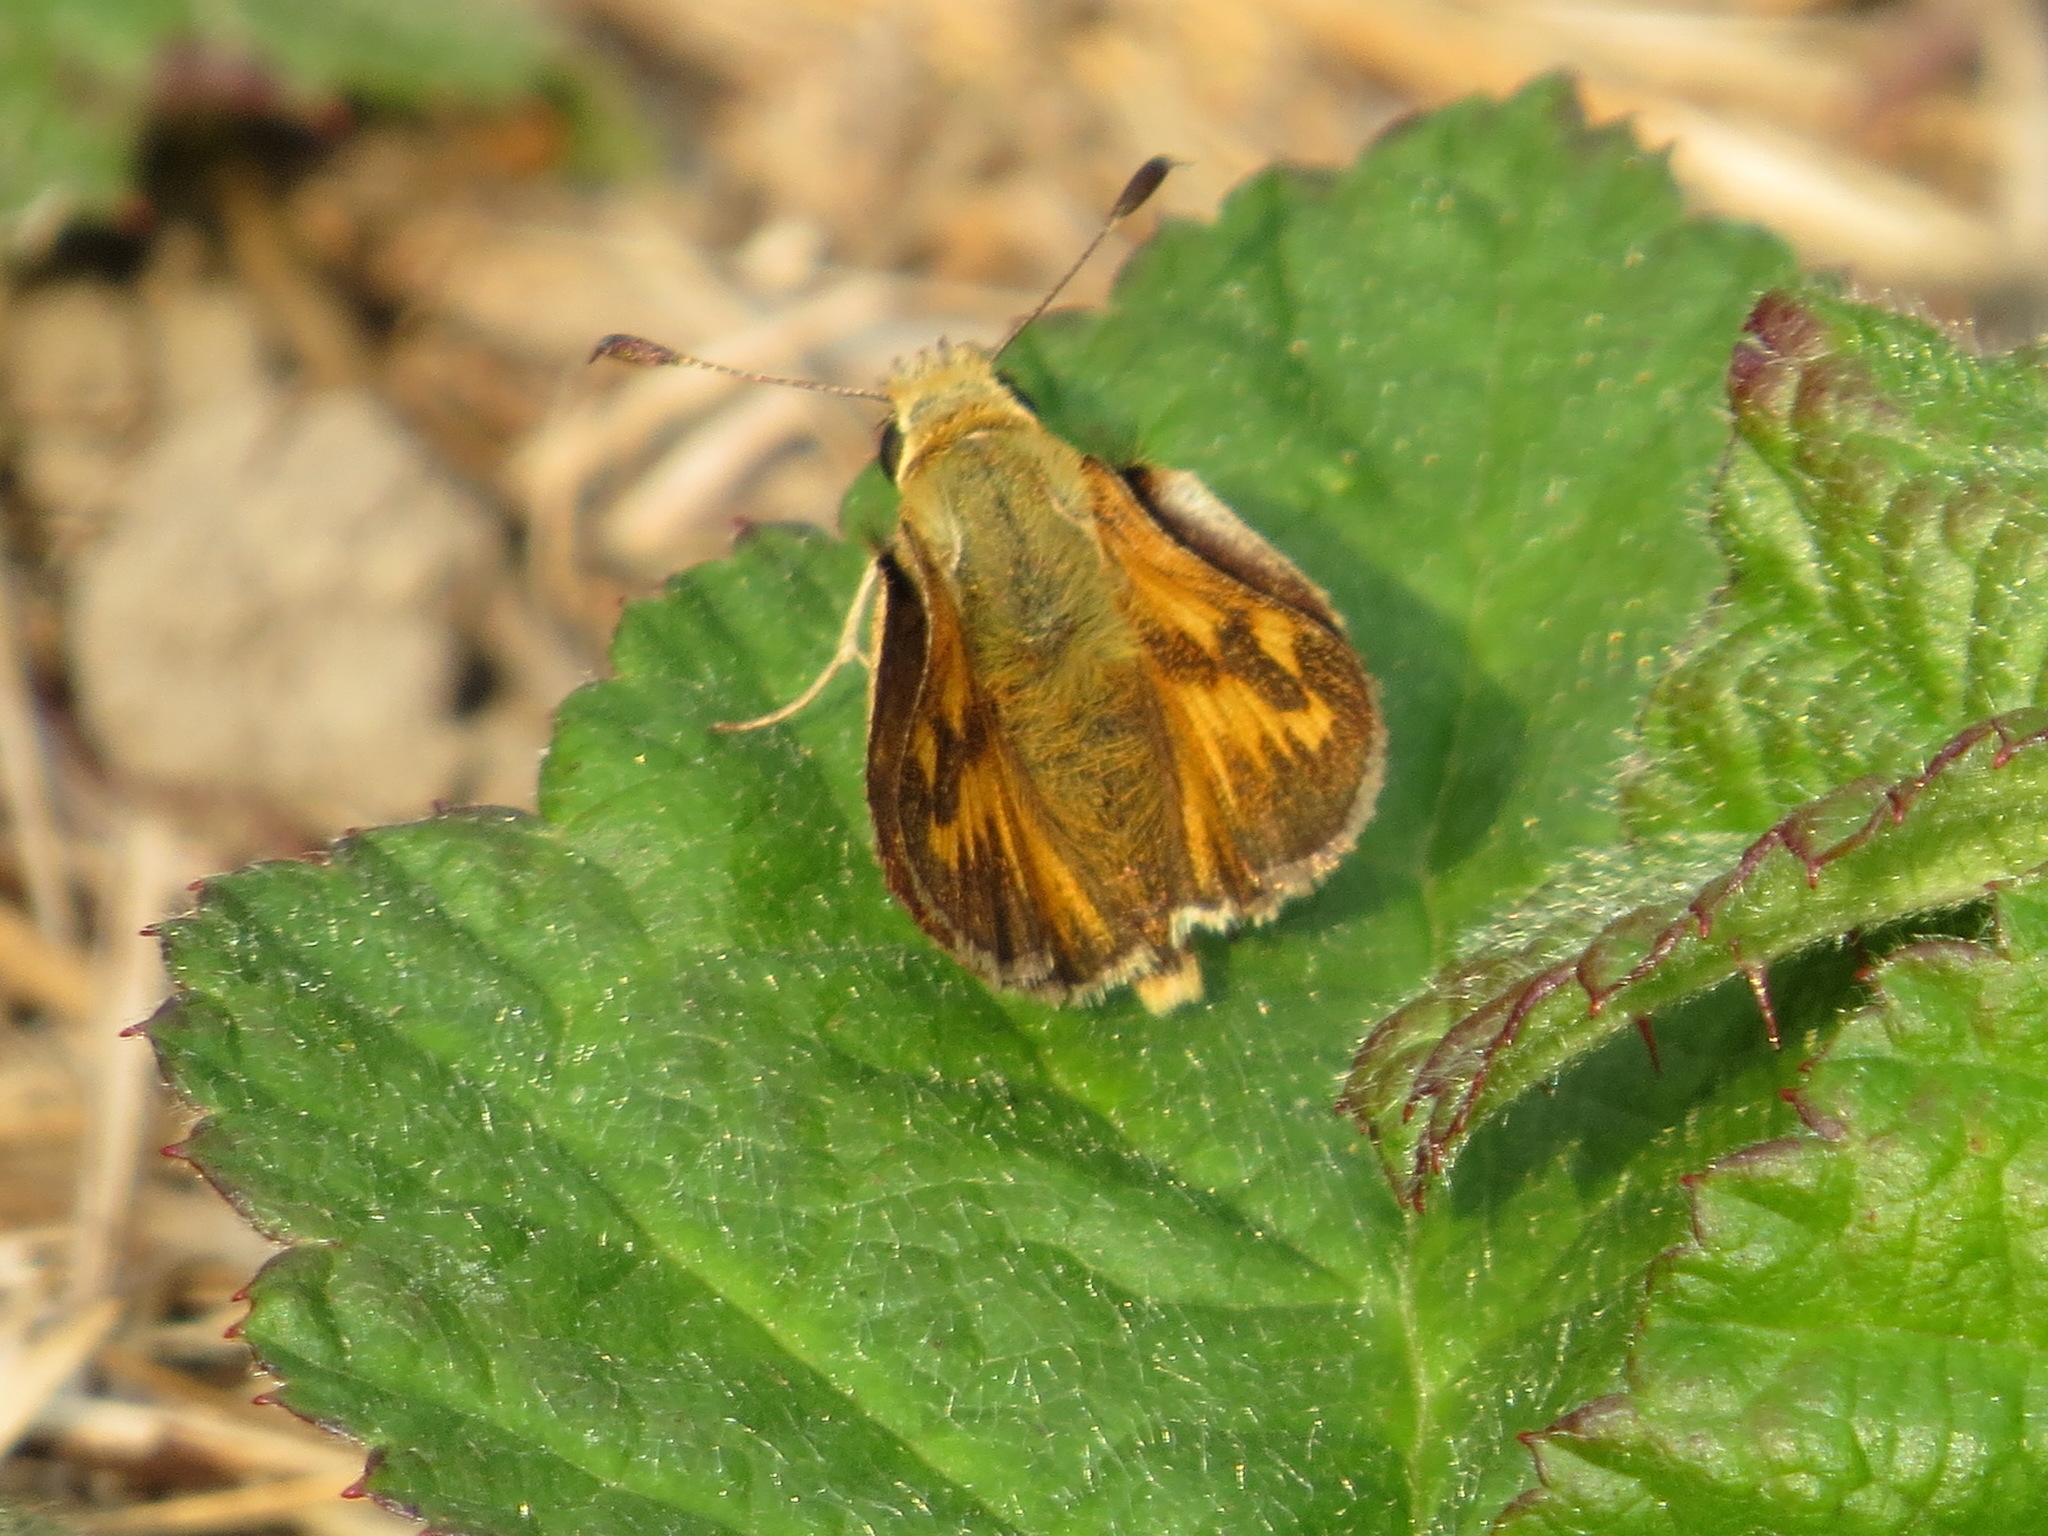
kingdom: Animalia
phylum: Arthropoda
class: Insecta
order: Lepidoptera
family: Hesperiidae
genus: Ochlodes
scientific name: Ochlodes sylvanoides
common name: Woodland skipper
